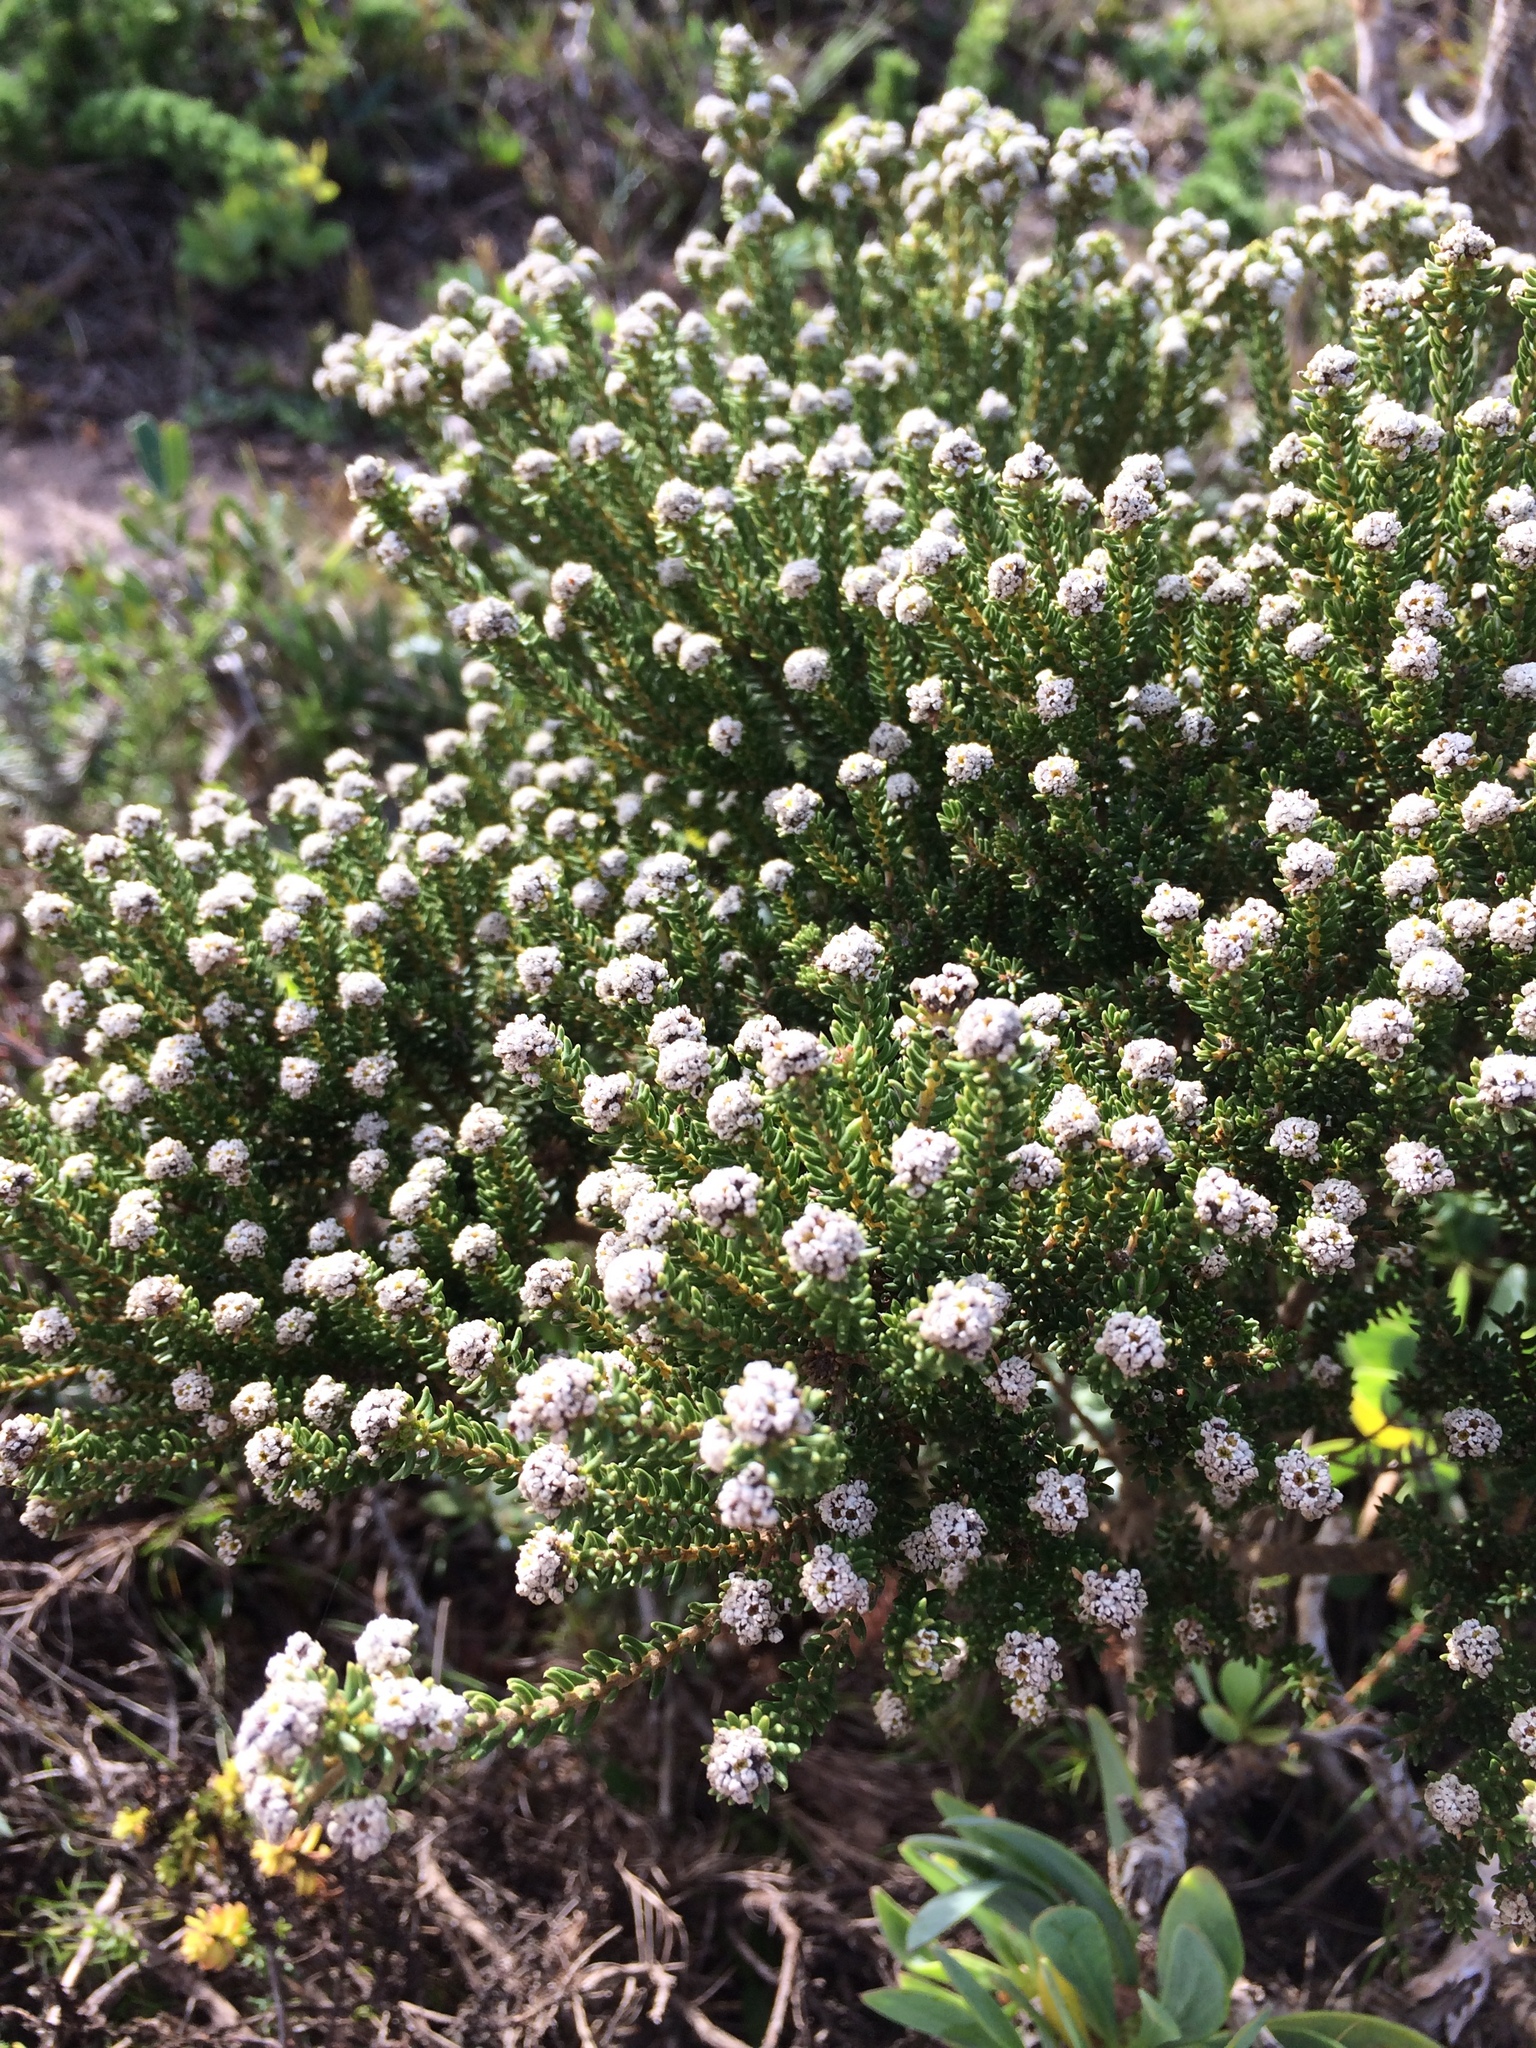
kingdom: Plantae
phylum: Tracheophyta
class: Magnoliopsida
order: Rosales
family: Rhamnaceae
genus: Phylica
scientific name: Phylica ericoides
